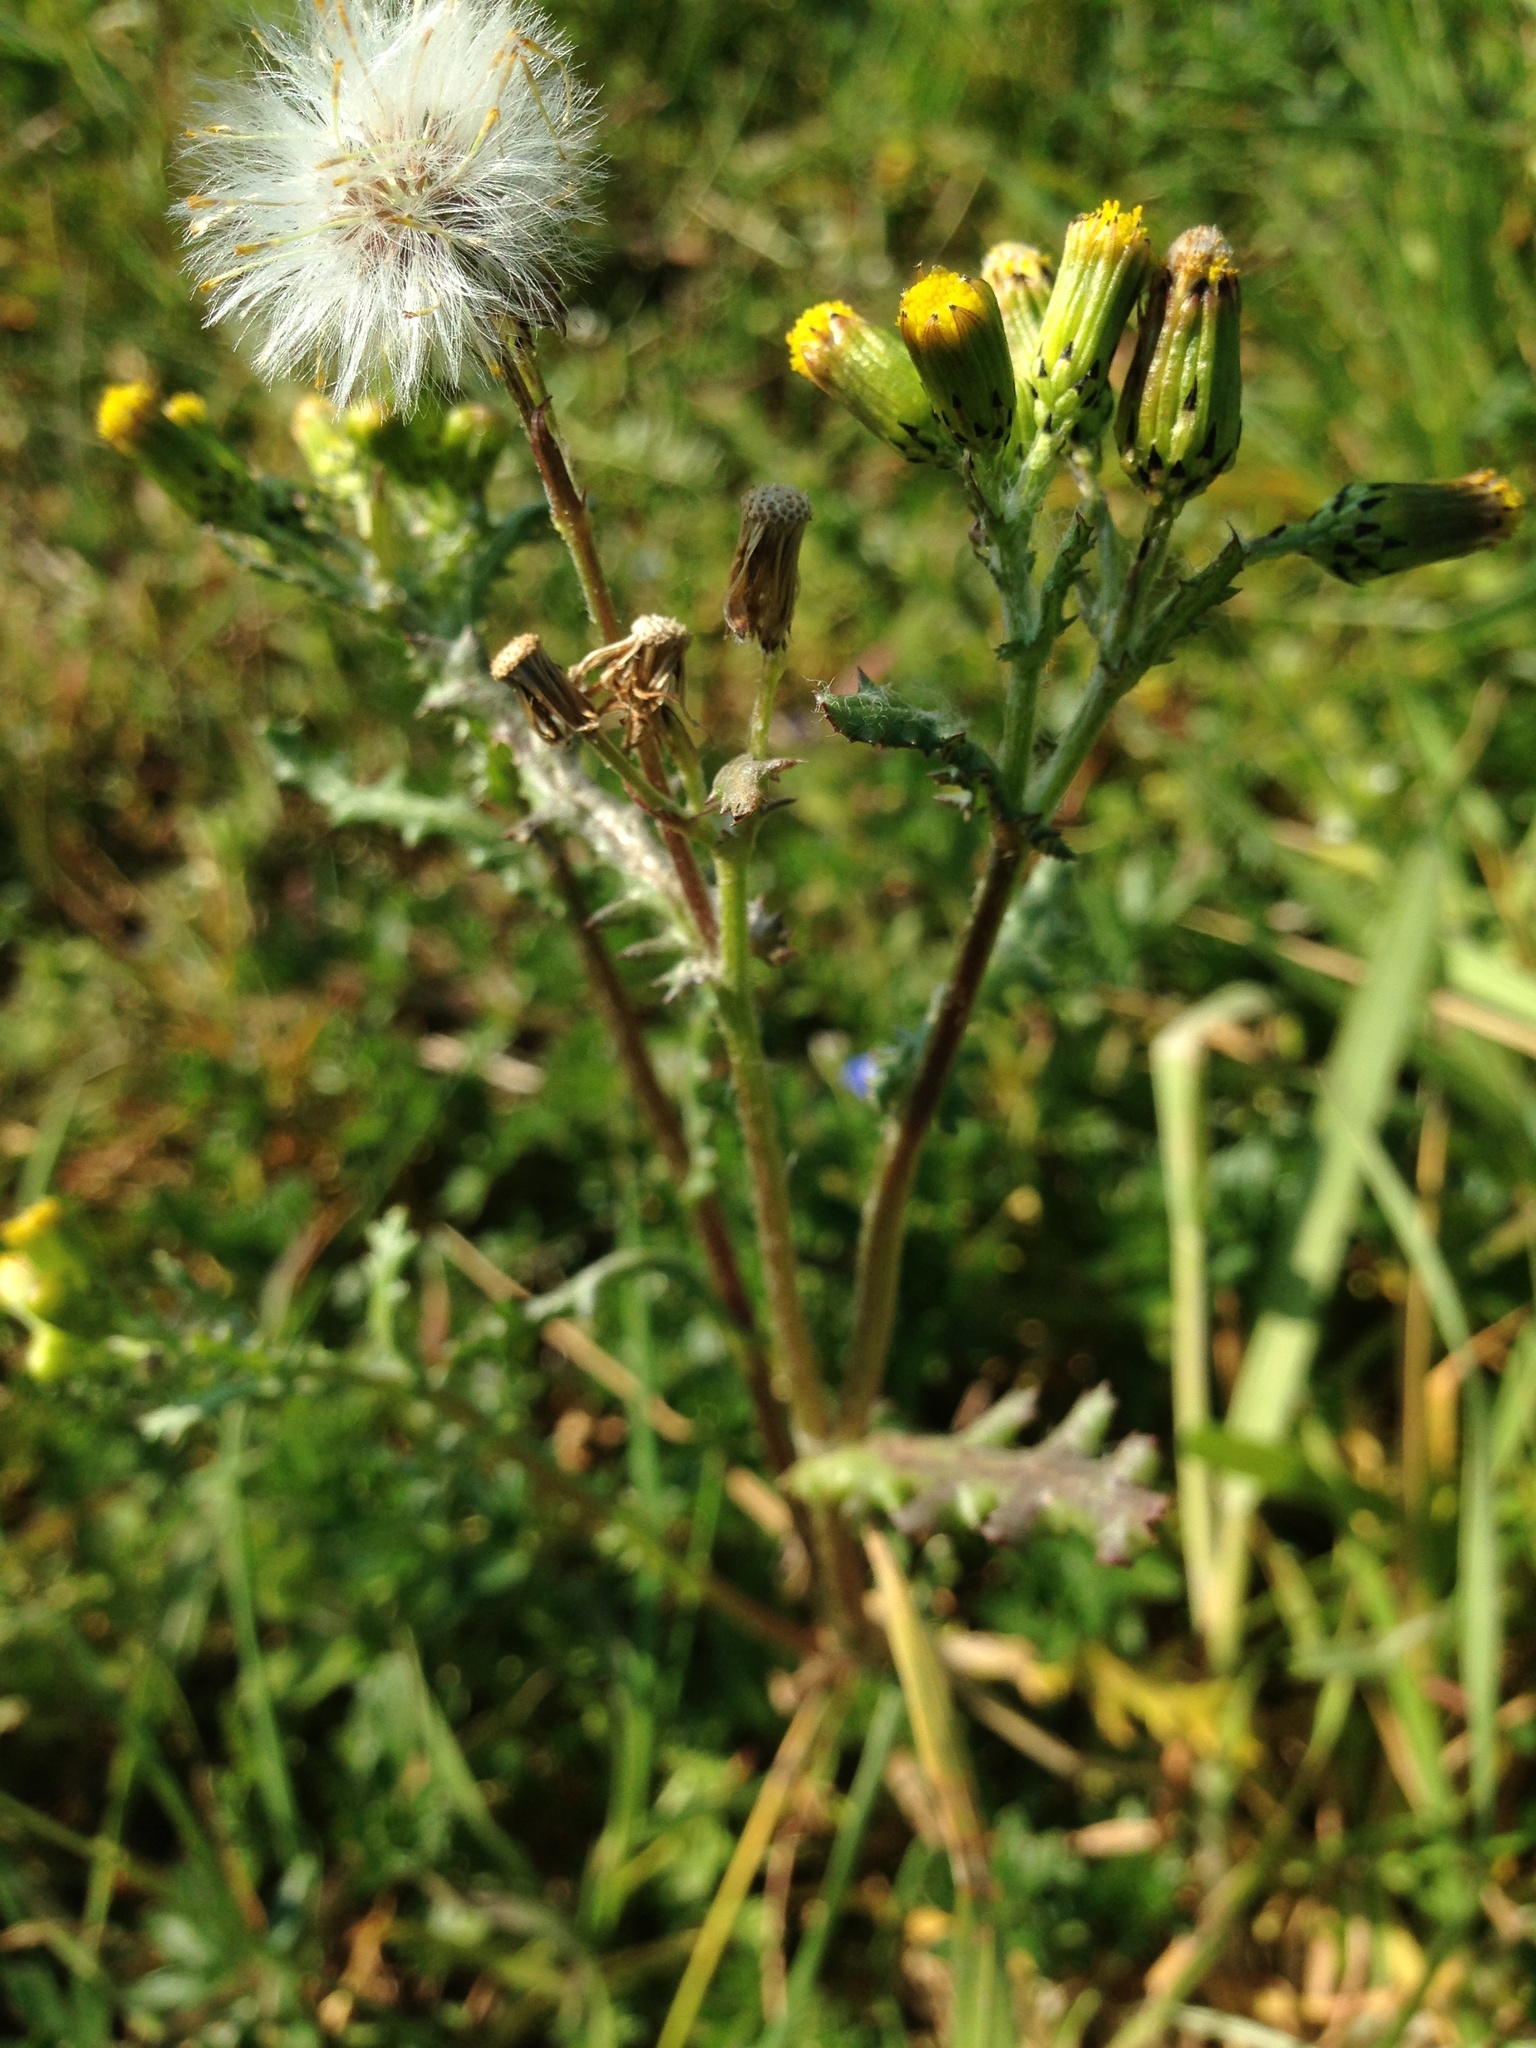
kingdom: Plantae
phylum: Tracheophyta
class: Magnoliopsida
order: Asterales
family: Asteraceae
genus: Senecio
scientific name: Senecio vulgaris
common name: Old-man-in-the-spring
